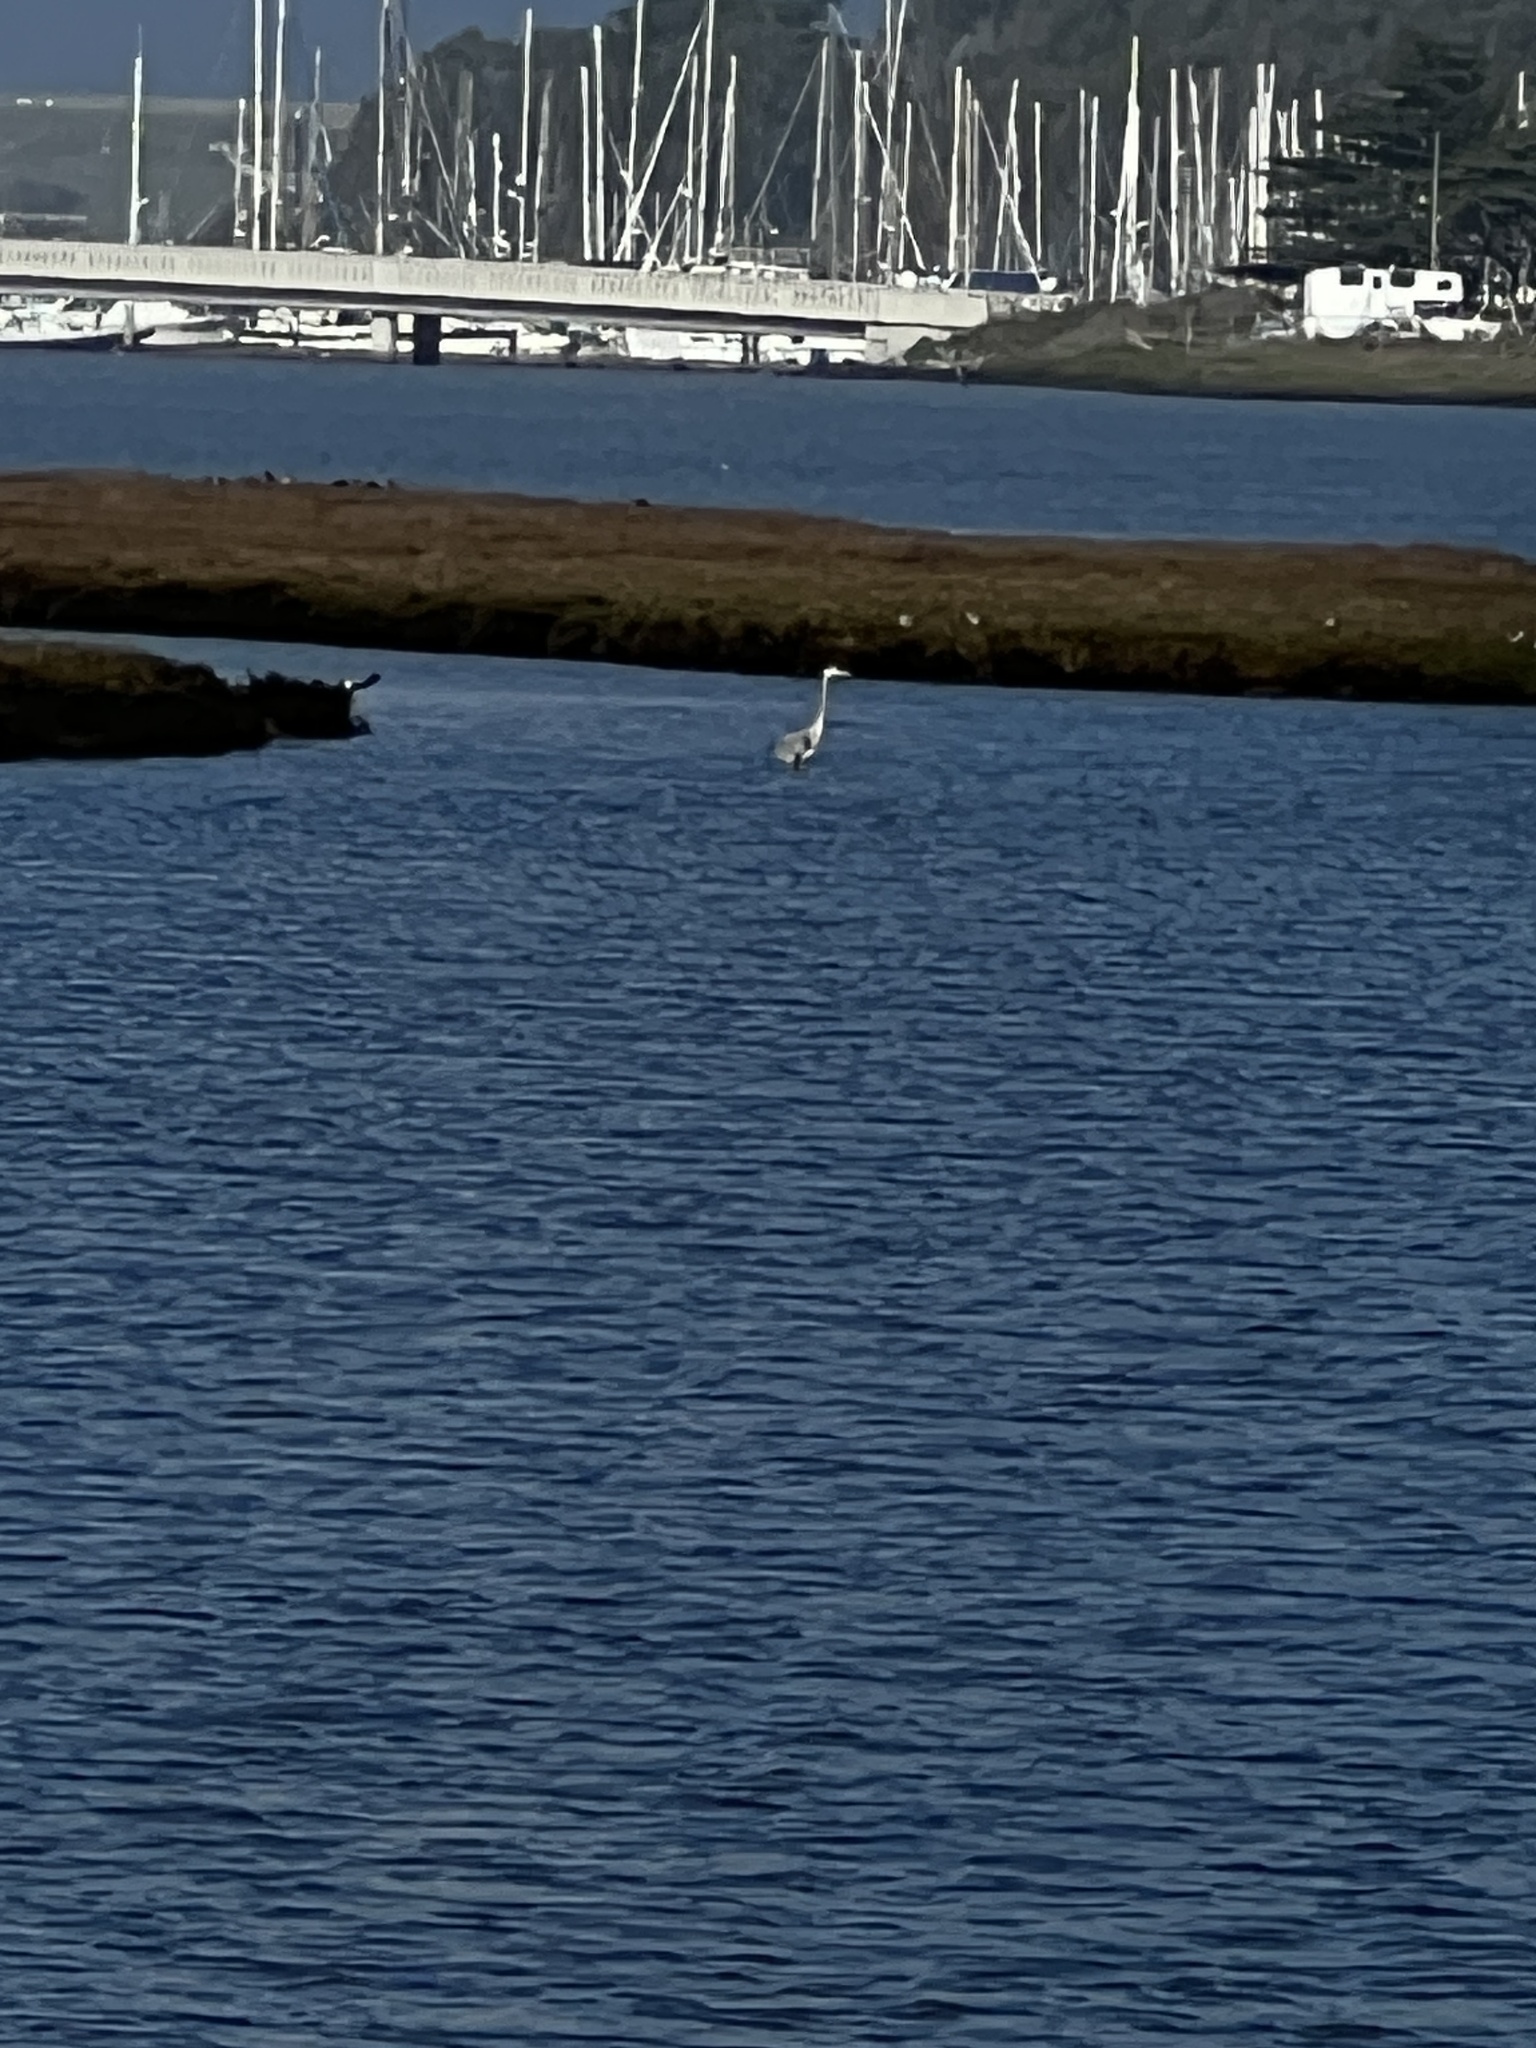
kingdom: Animalia
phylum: Chordata
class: Aves
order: Pelecaniformes
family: Ardeidae
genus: Ardea
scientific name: Ardea herodias
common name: Great blue heron
